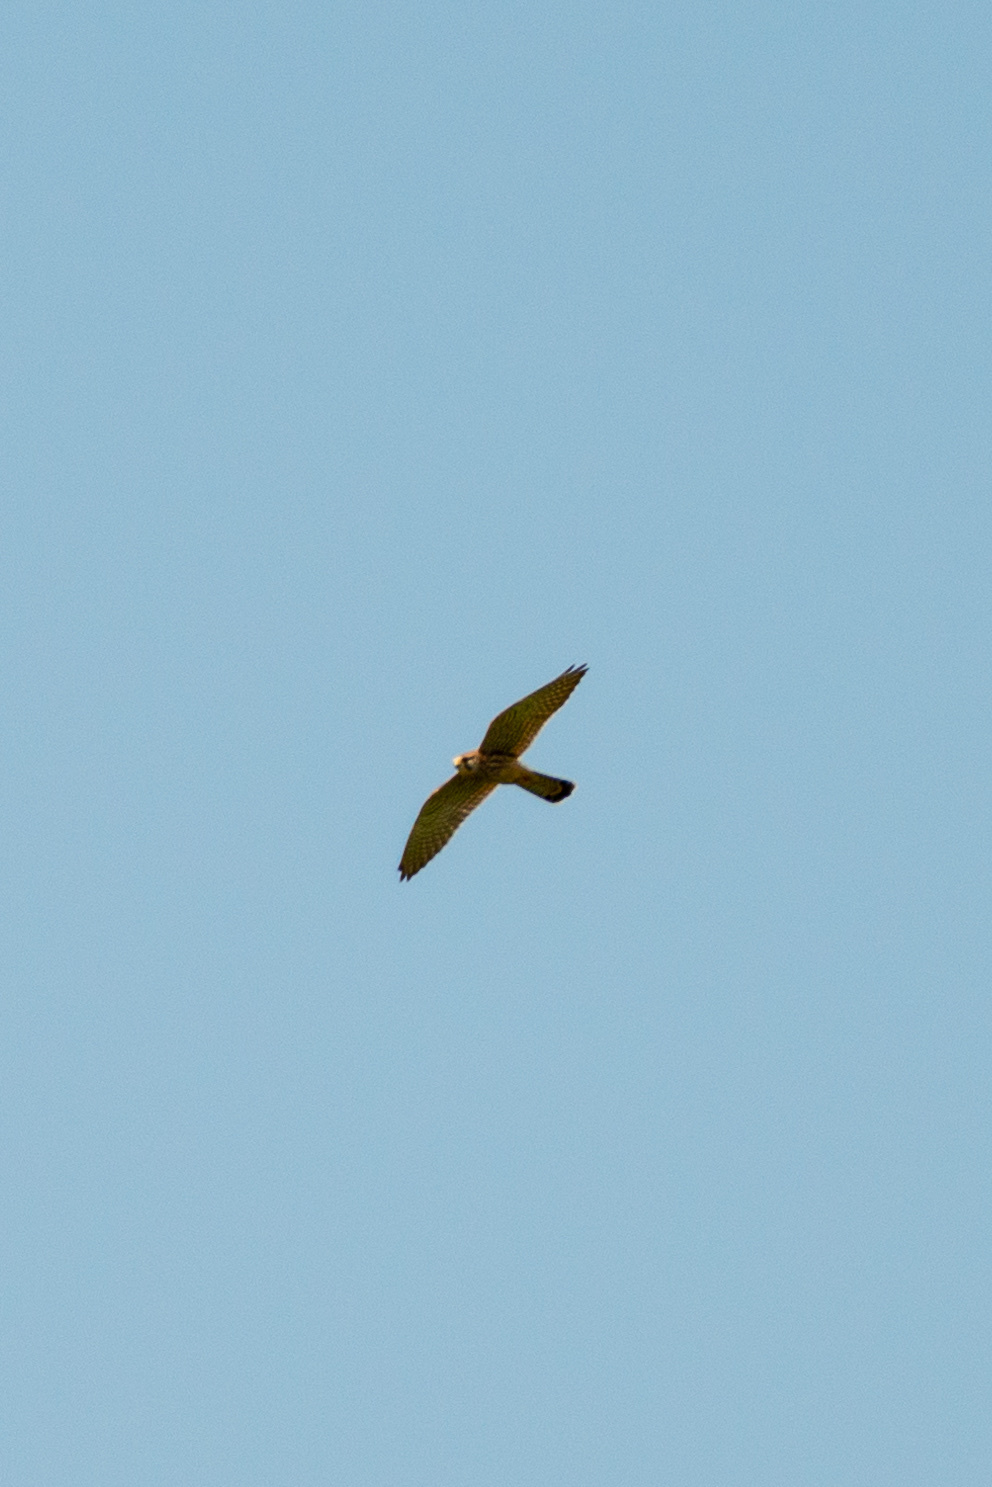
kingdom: Animalia
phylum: Chordata
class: Aves
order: Falconiformes
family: Falconidae
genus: Falco
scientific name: Falco tinnunculus
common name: Common kestrel
